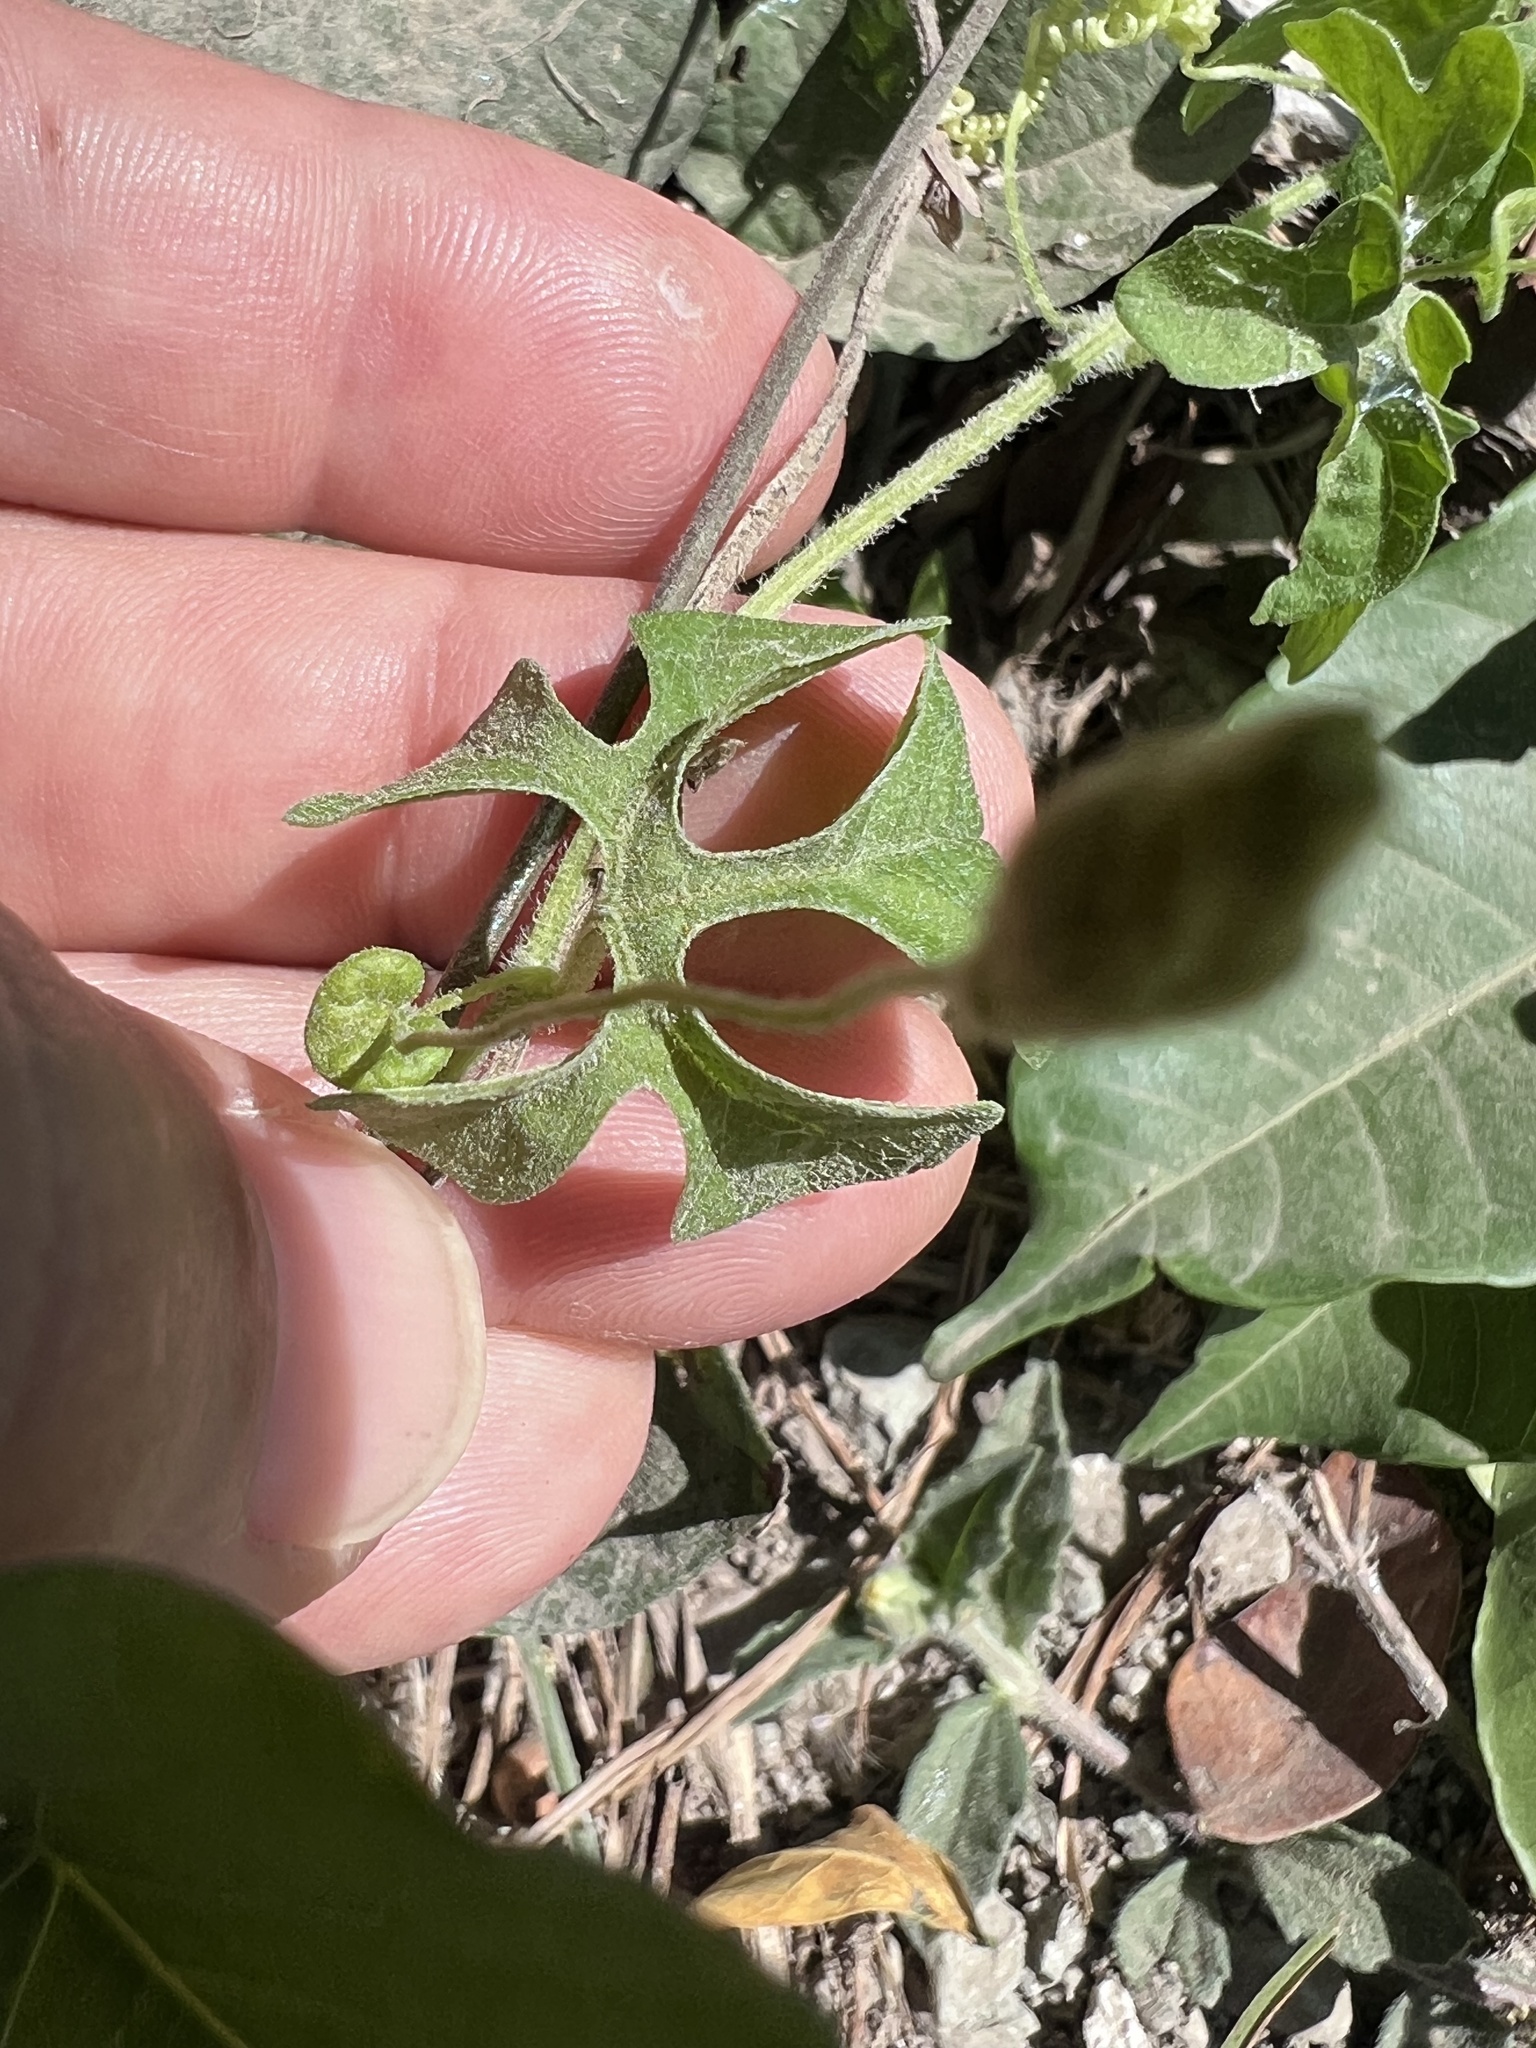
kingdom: Plantae
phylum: Tracheophyta
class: Magnoliopsida
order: Cucurbitales
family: Cucurbitaceae
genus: Momordica
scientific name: Momordica charantia
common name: Balsampear
